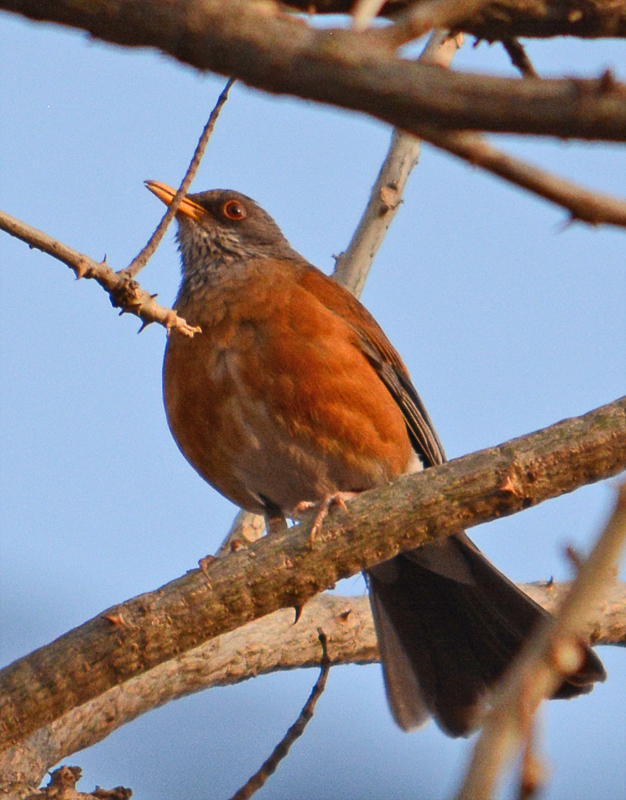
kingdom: Animalia
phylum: Chordata
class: Aves
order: Passeriformes
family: Turdidae
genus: Turdus
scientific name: Turdus rufopalliatus
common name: Rufous-backed robin
